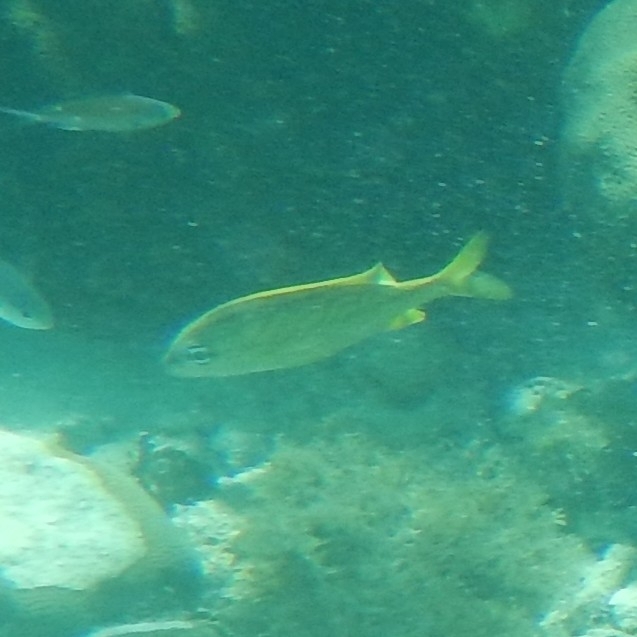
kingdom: Animalia
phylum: Chordata
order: Perciformes
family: Haemulidae
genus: Haemulon
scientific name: Haemulon flavolineatum
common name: French grunt
